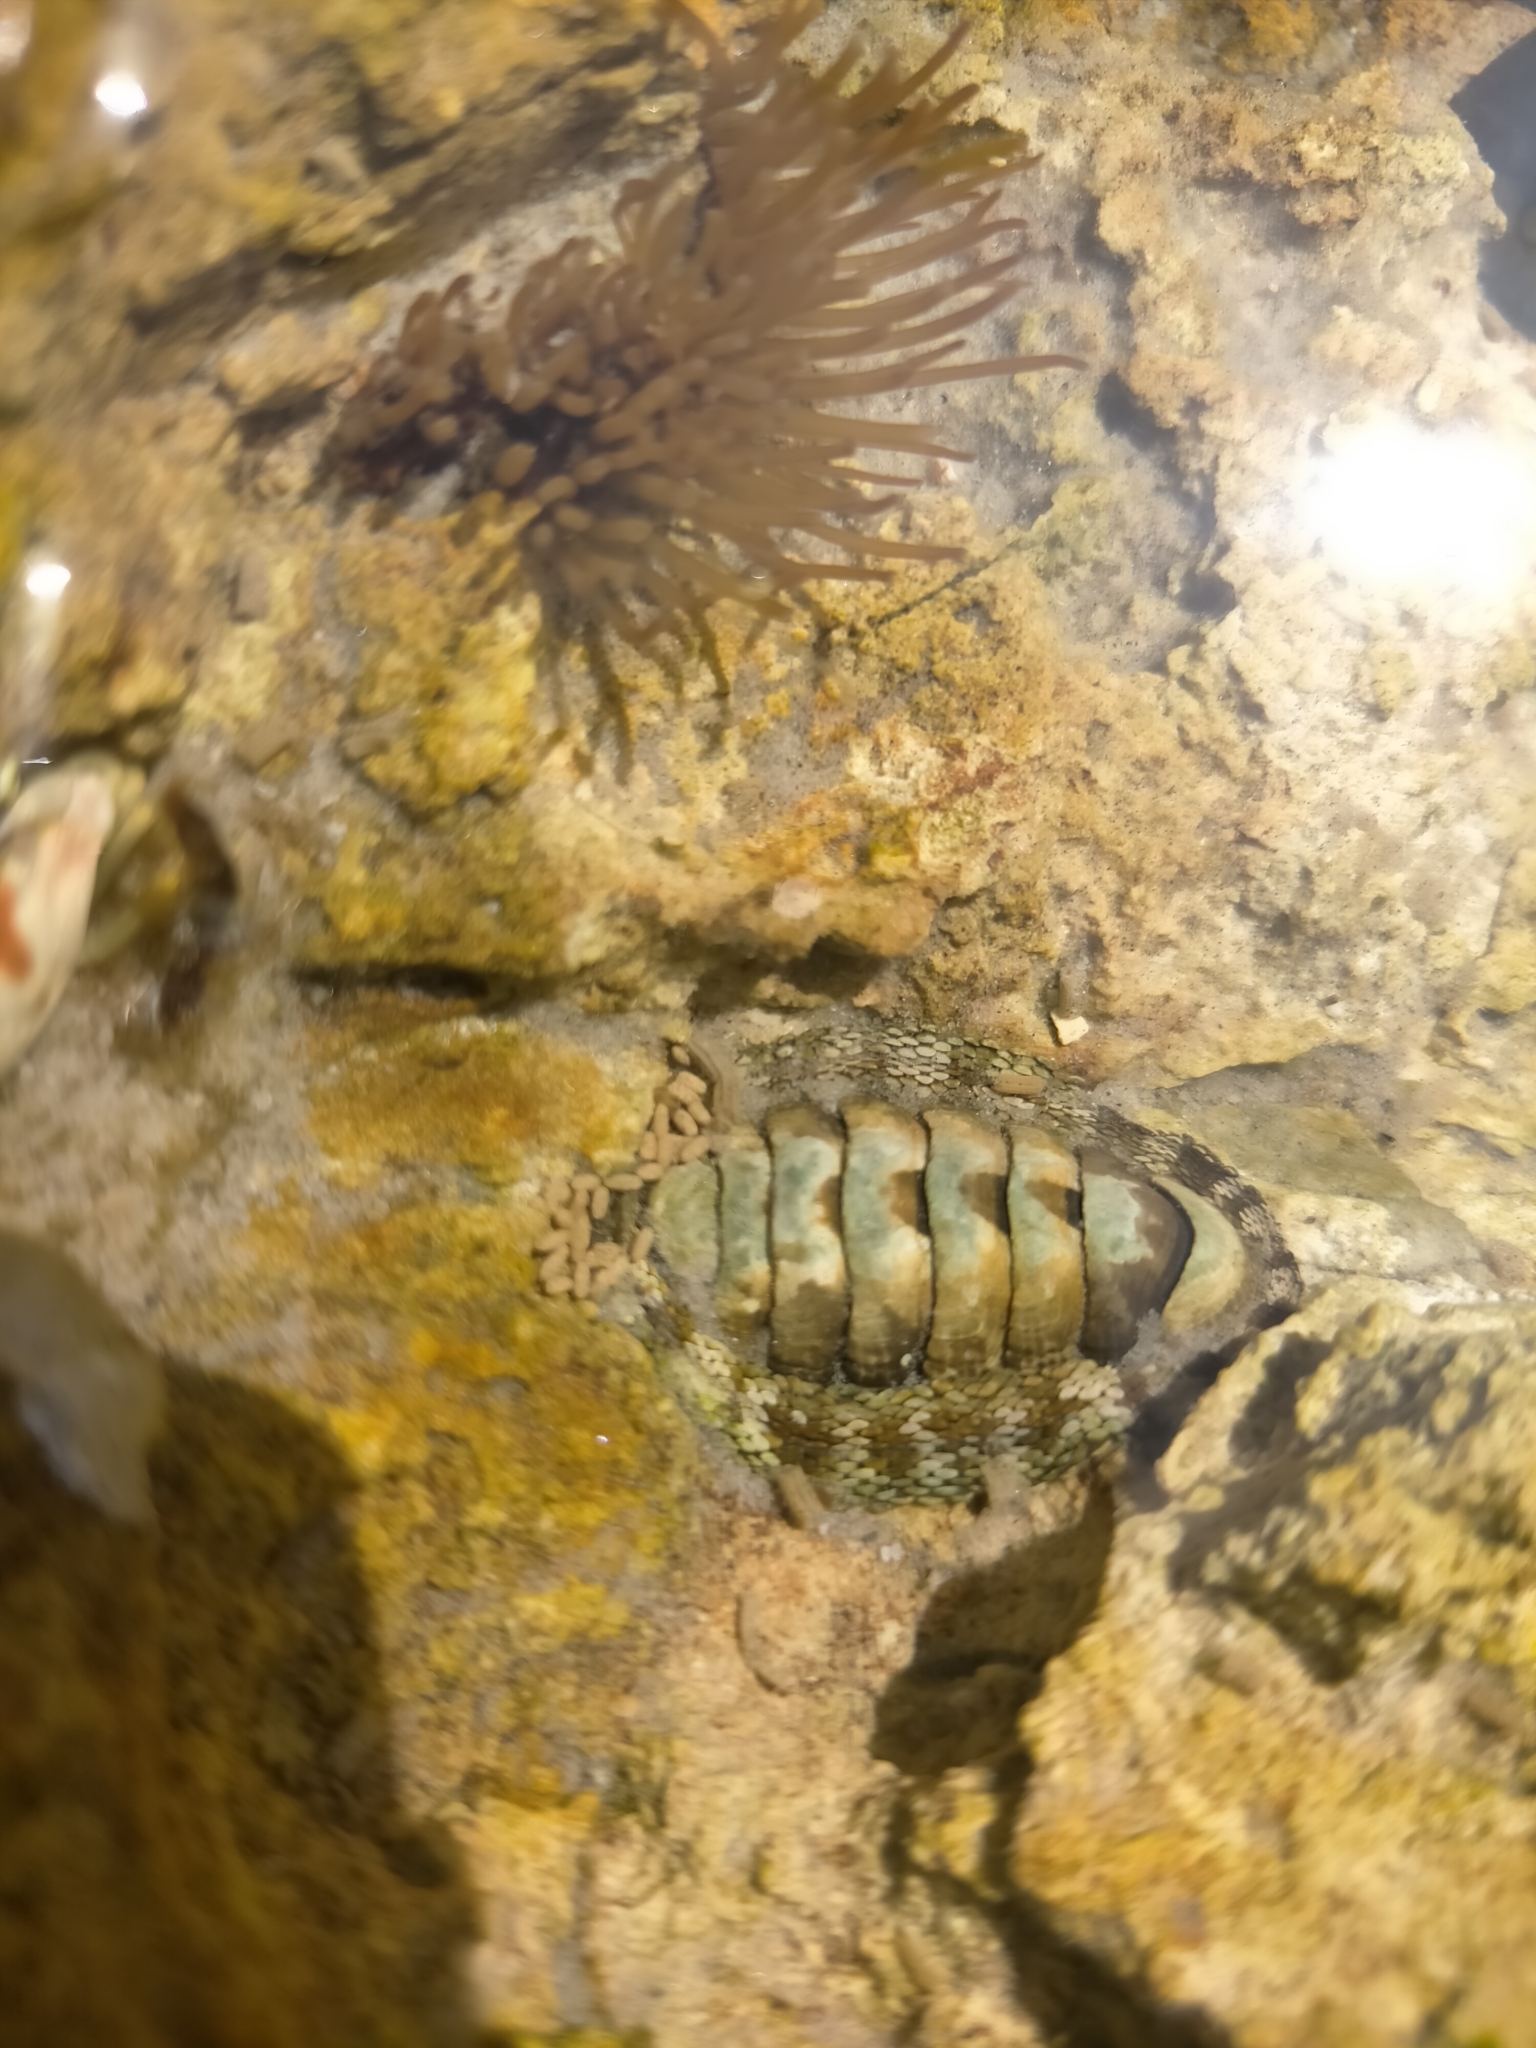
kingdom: Animalia
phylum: Mollusca
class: Polyplacophora
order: Chitonida
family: Chitonidae
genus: Sypharochiton
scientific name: Sypharochiton pelliserpentis
